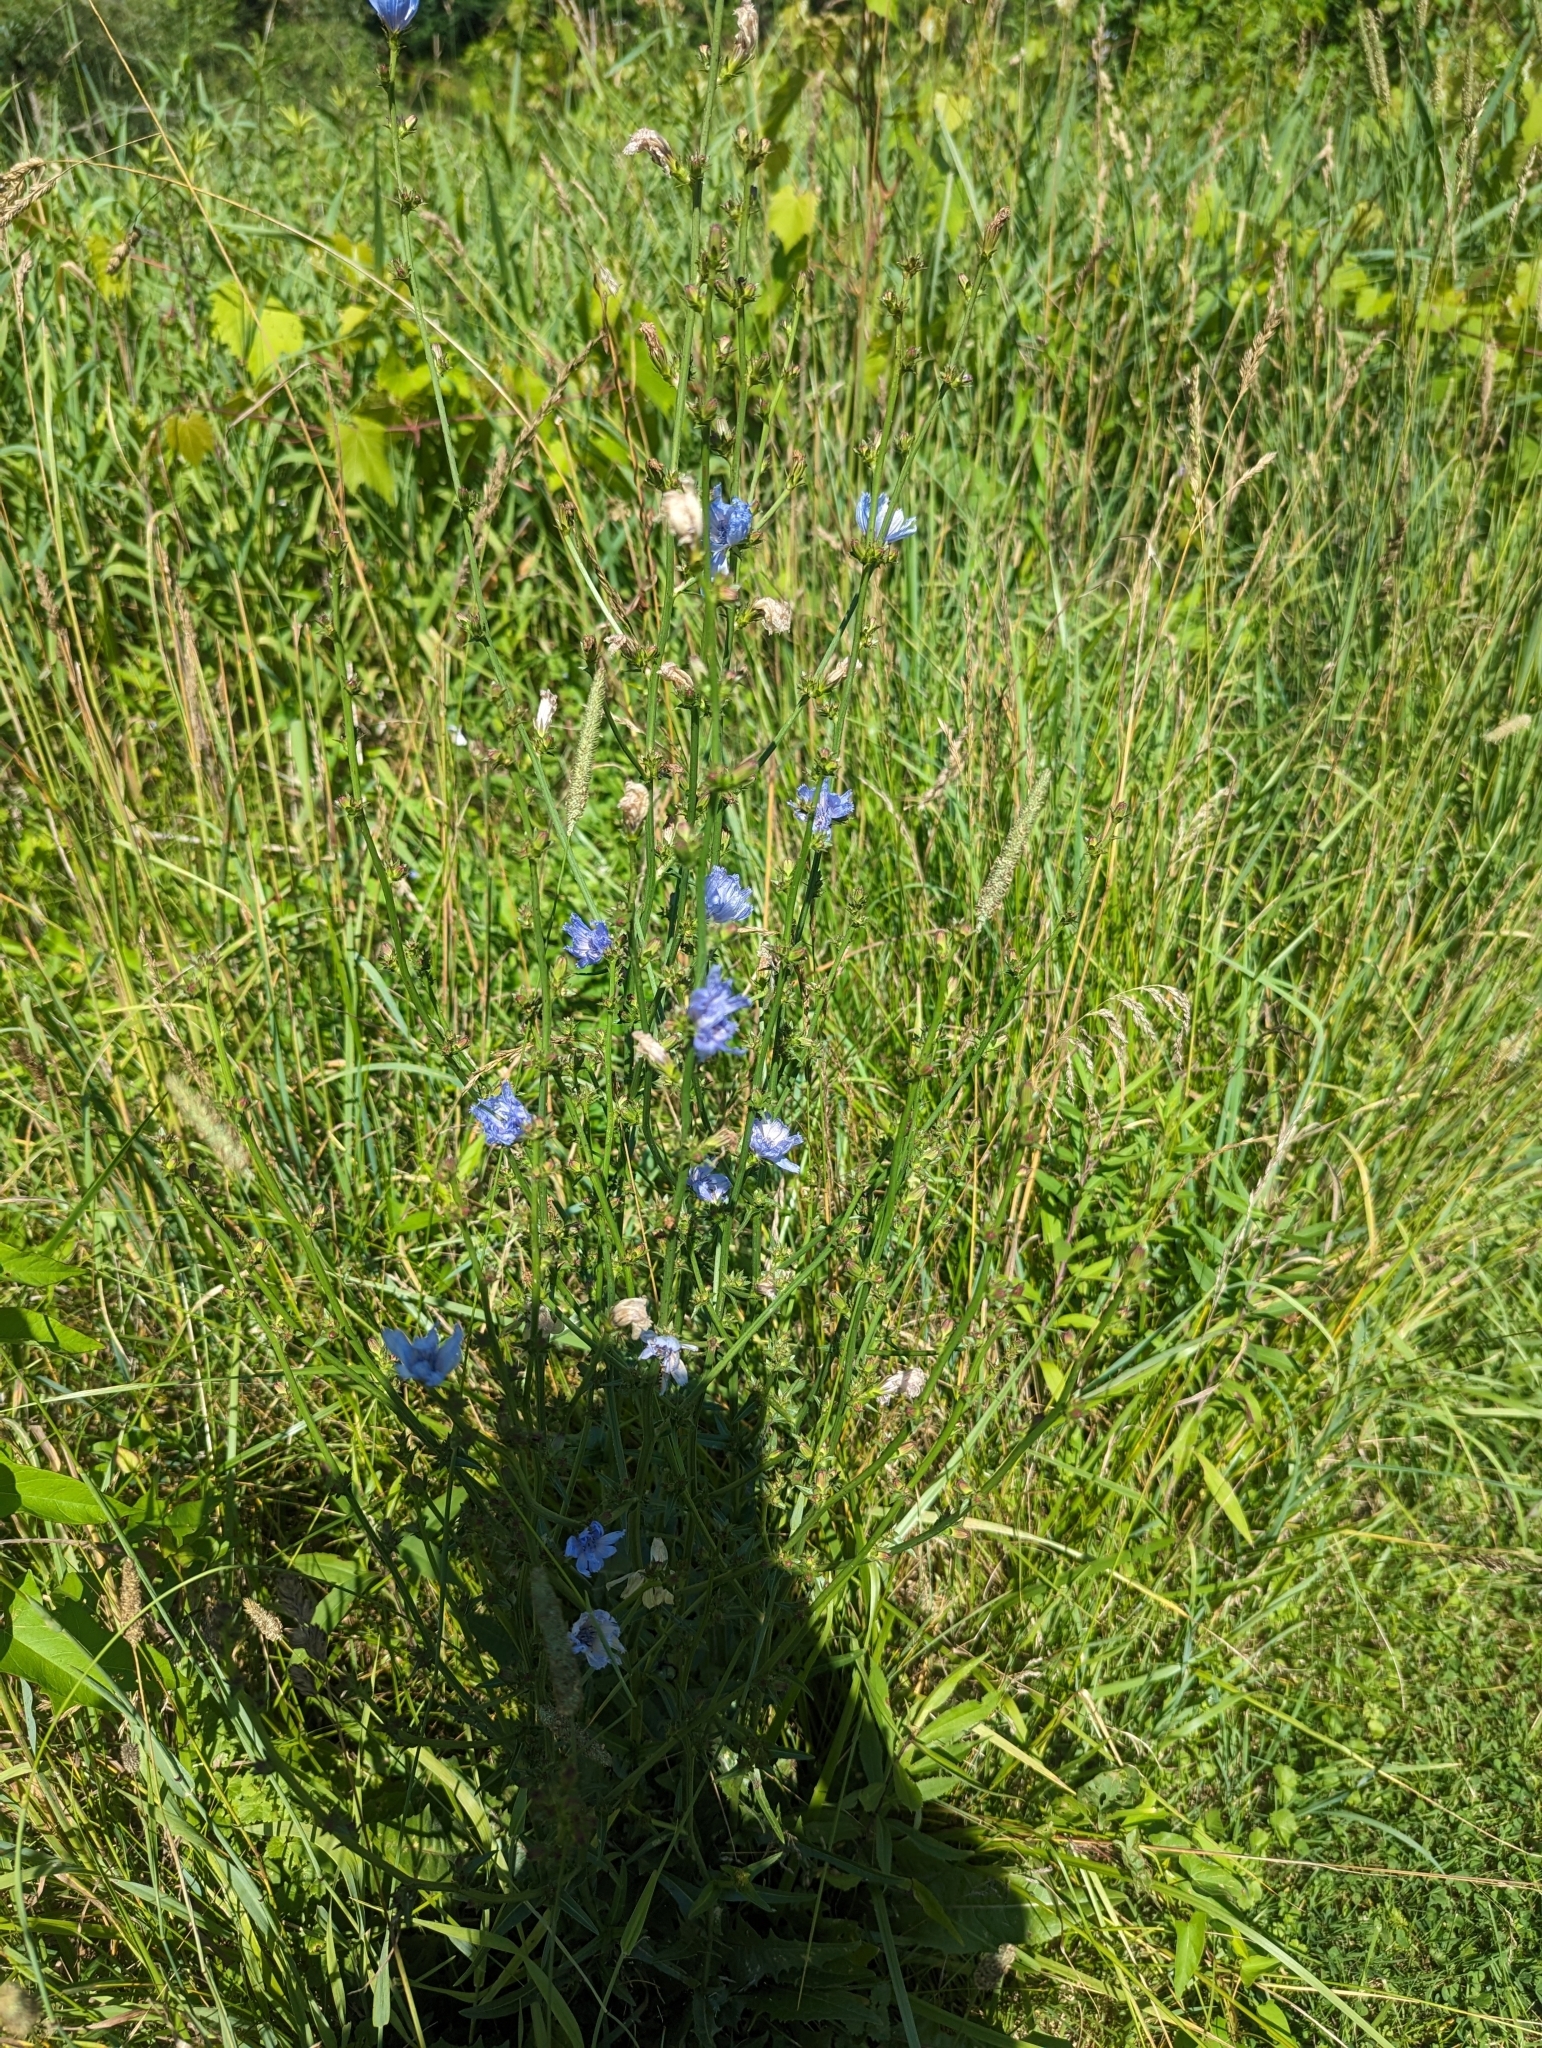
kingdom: Plantae
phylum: Tracheophyta
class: Magnoliopsida
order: Asterales
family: Asteraceae
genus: Cichorium
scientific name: Cichorium intybus
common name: Chicory
